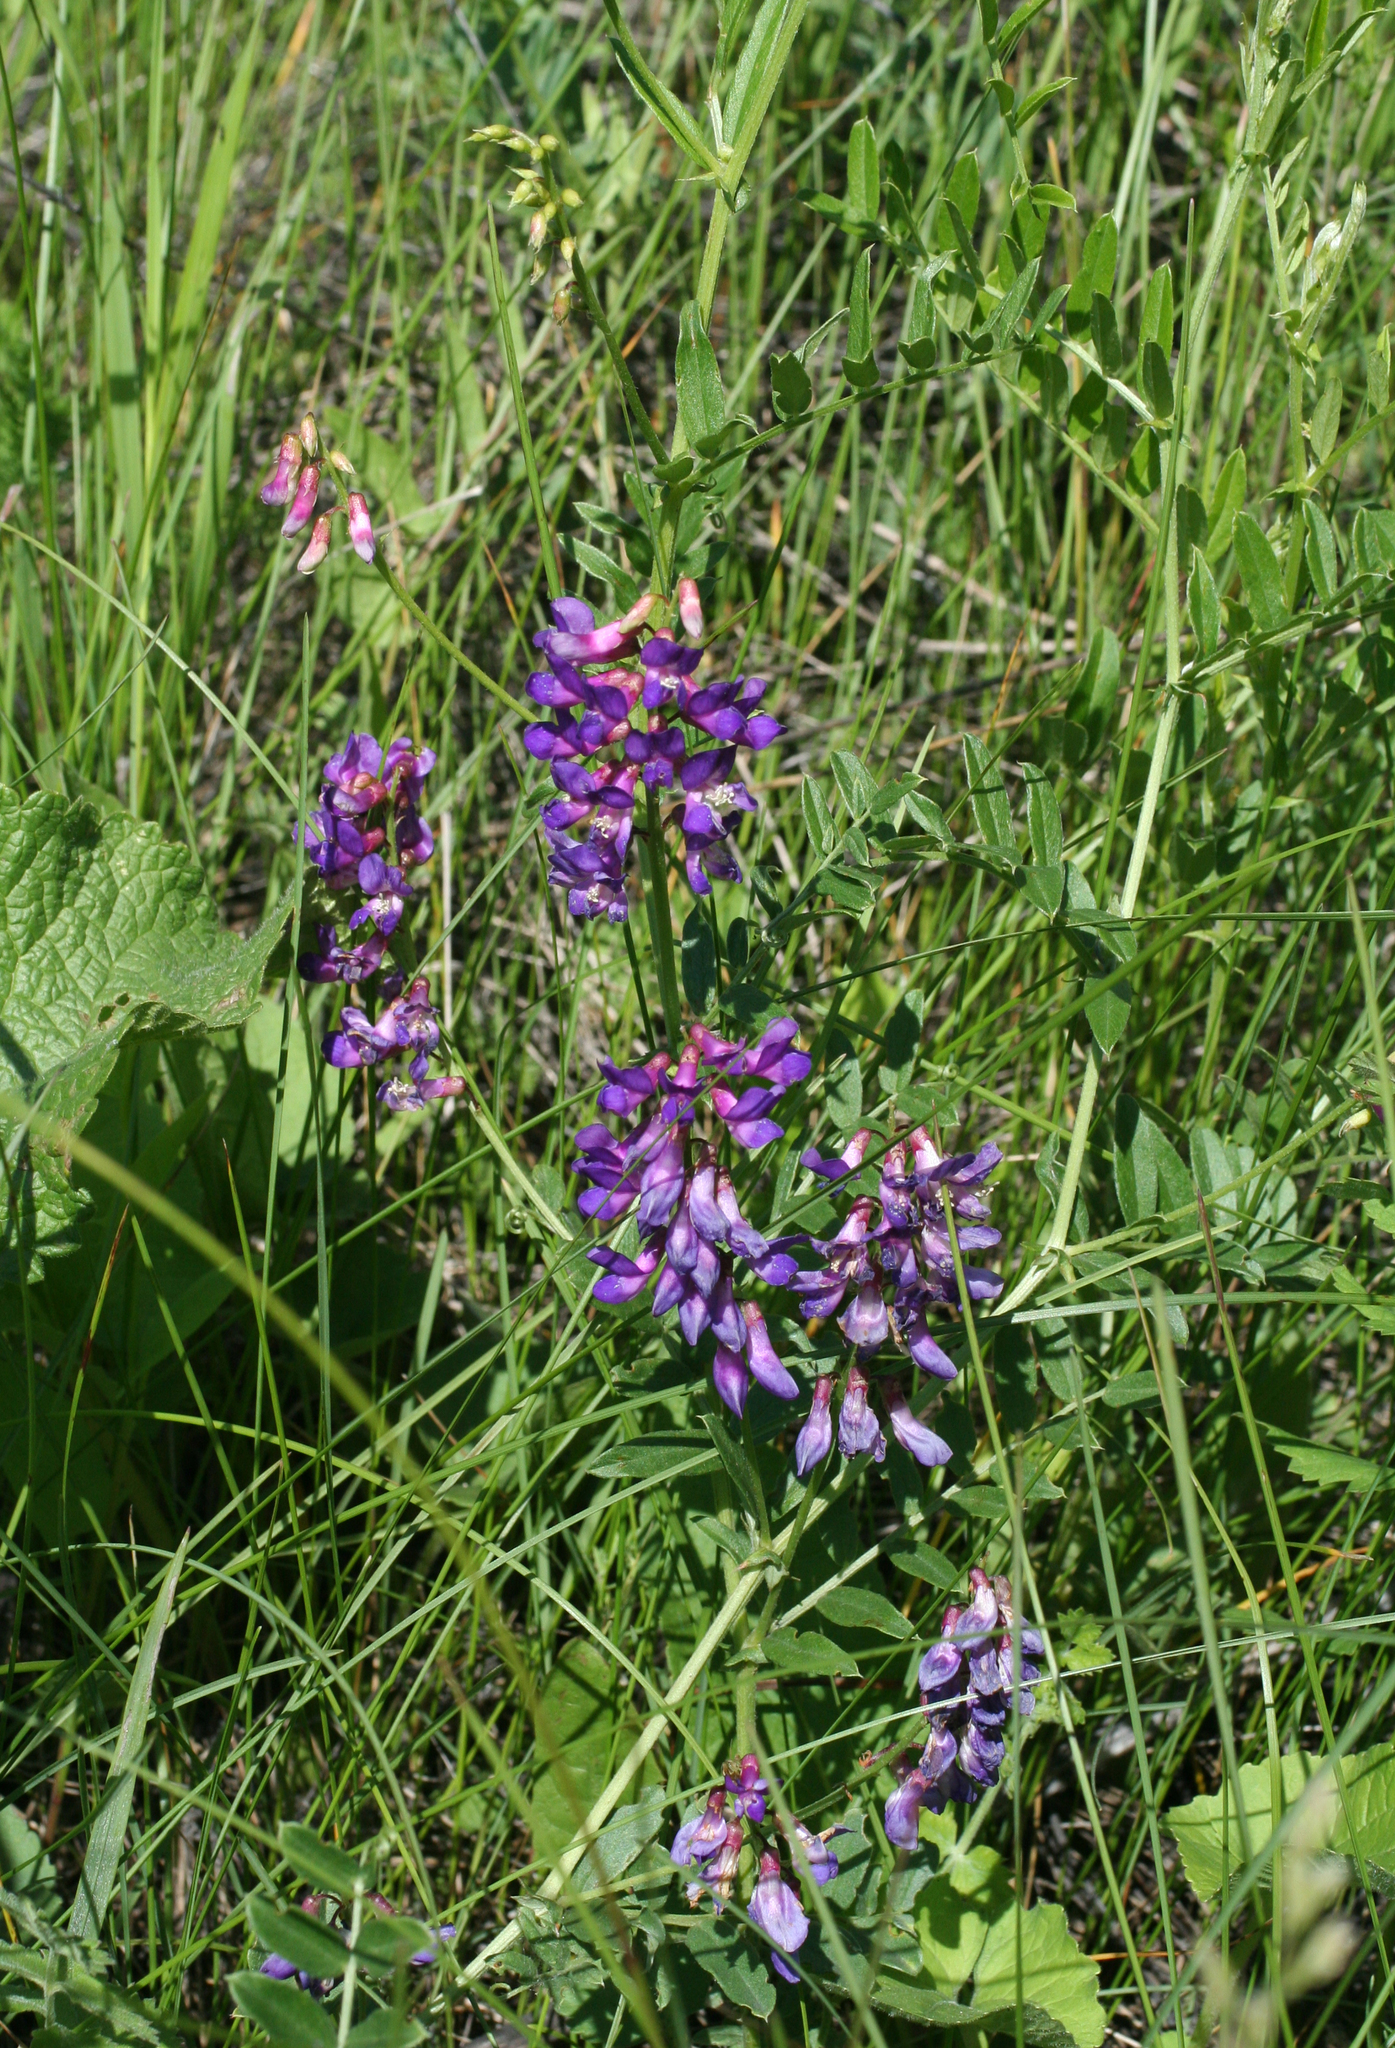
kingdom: Plantae
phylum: Tracheophyta
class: Magnoliopsida
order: Fabales
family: Fabaceae
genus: Vicia
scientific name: Vicia amoena
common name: Cheder ebs
